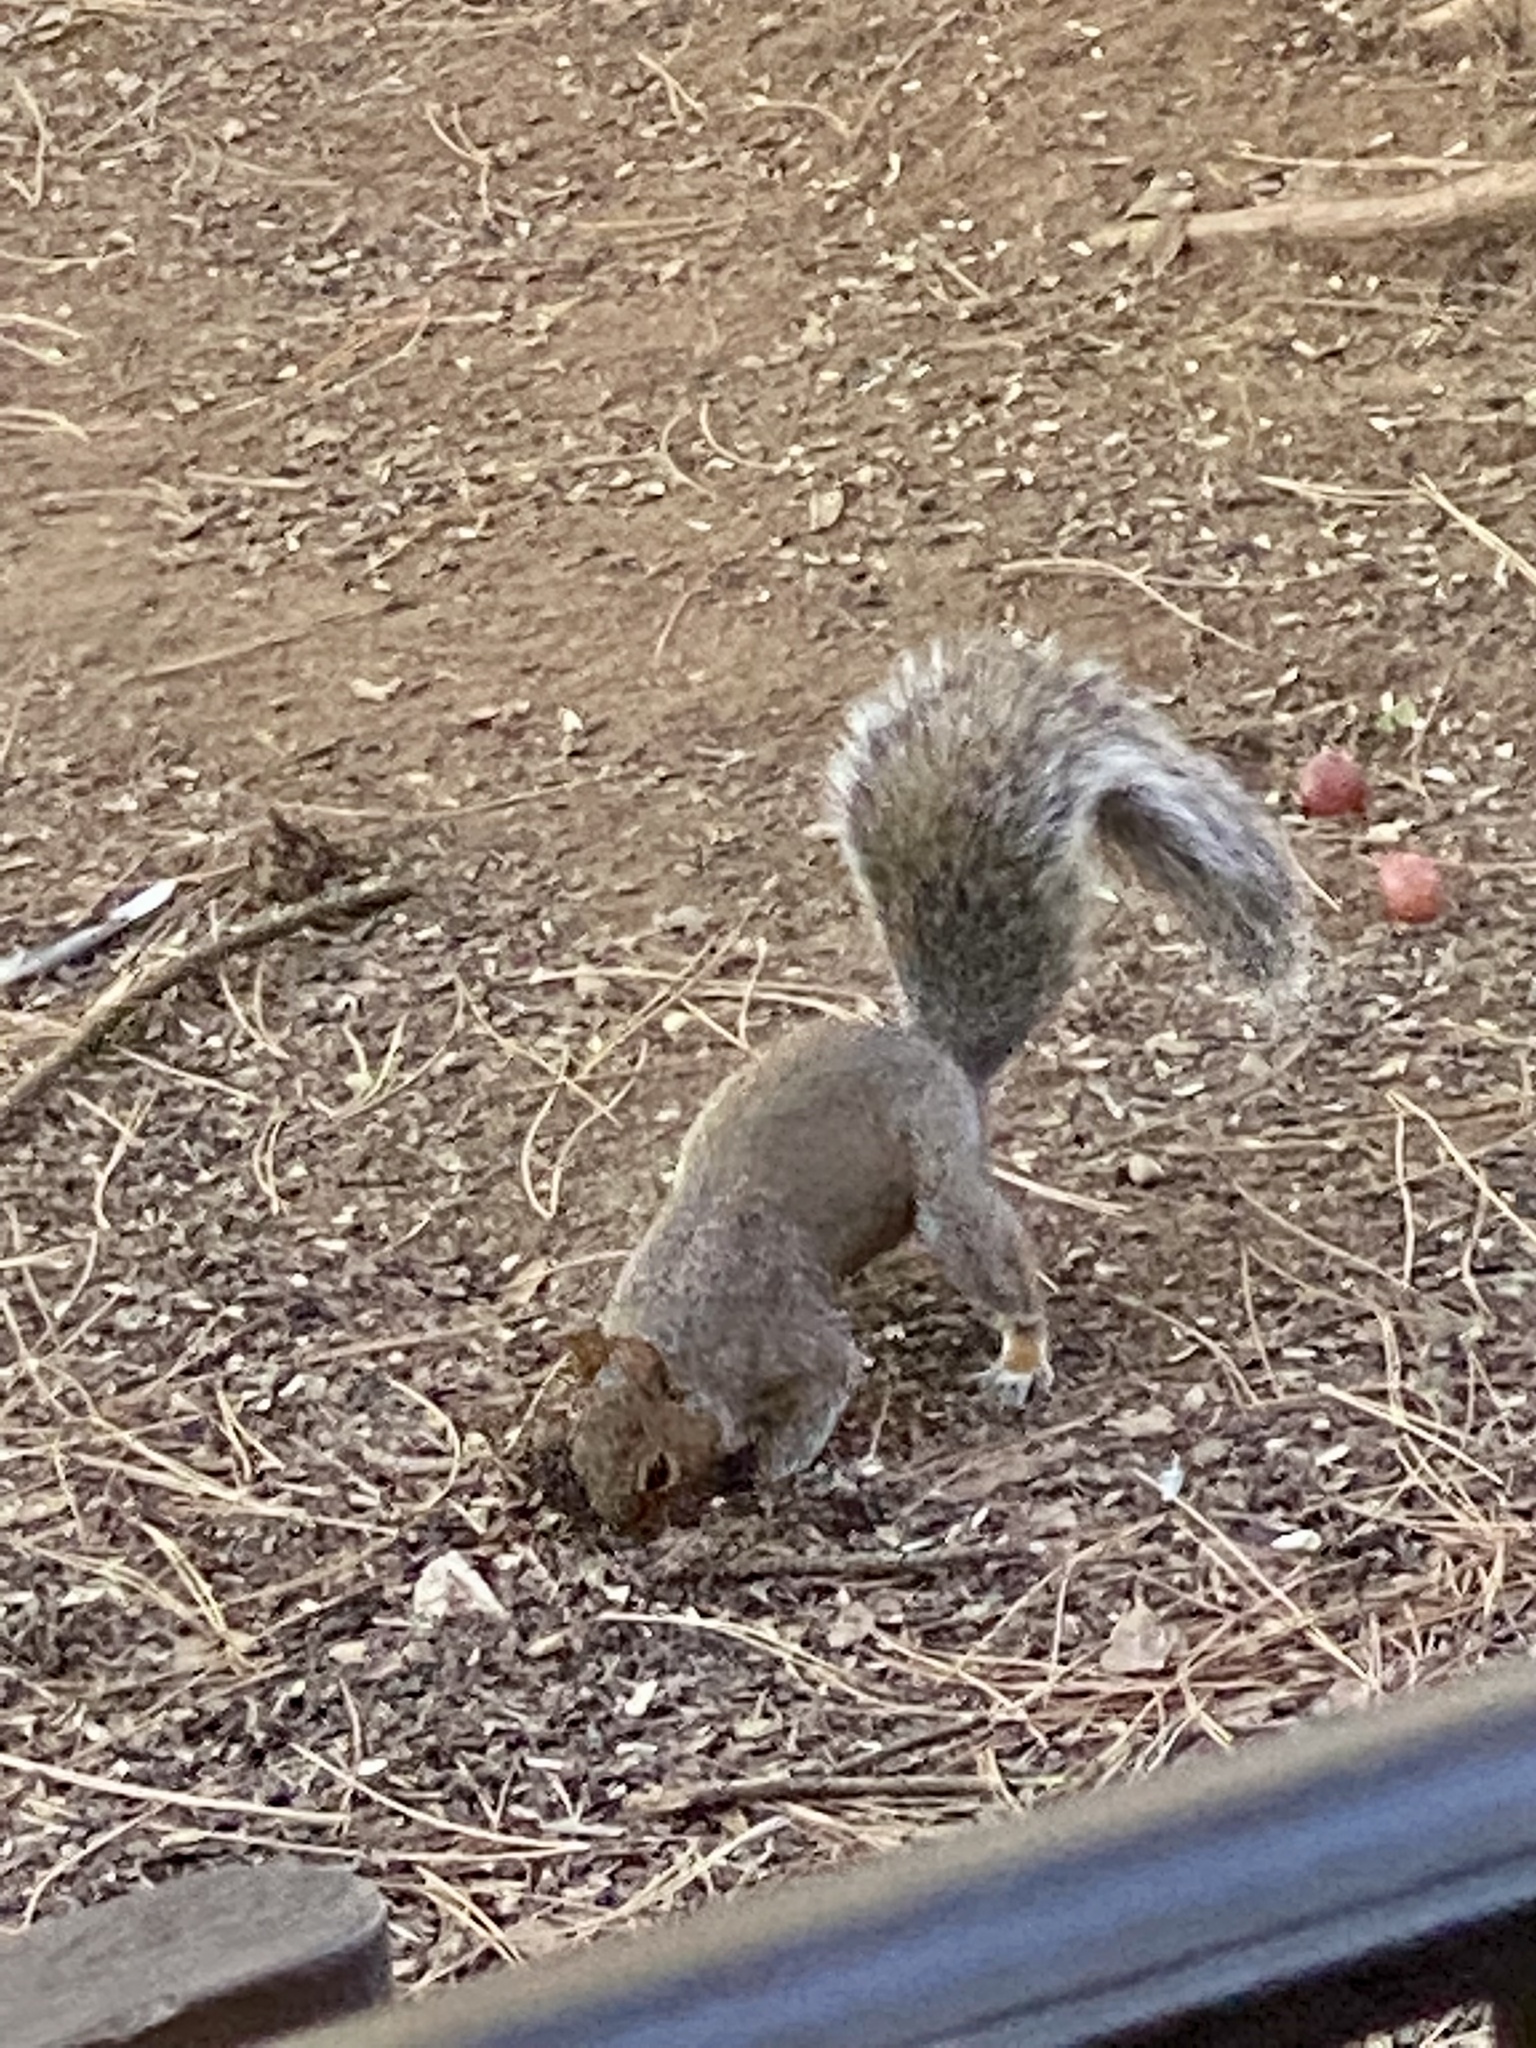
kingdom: Animalia
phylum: Chordata
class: Mammalia
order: Rodentia
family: Sciuridae
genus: Sciurus
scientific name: Sciurus carolinensis
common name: Eastern gray squirrel
